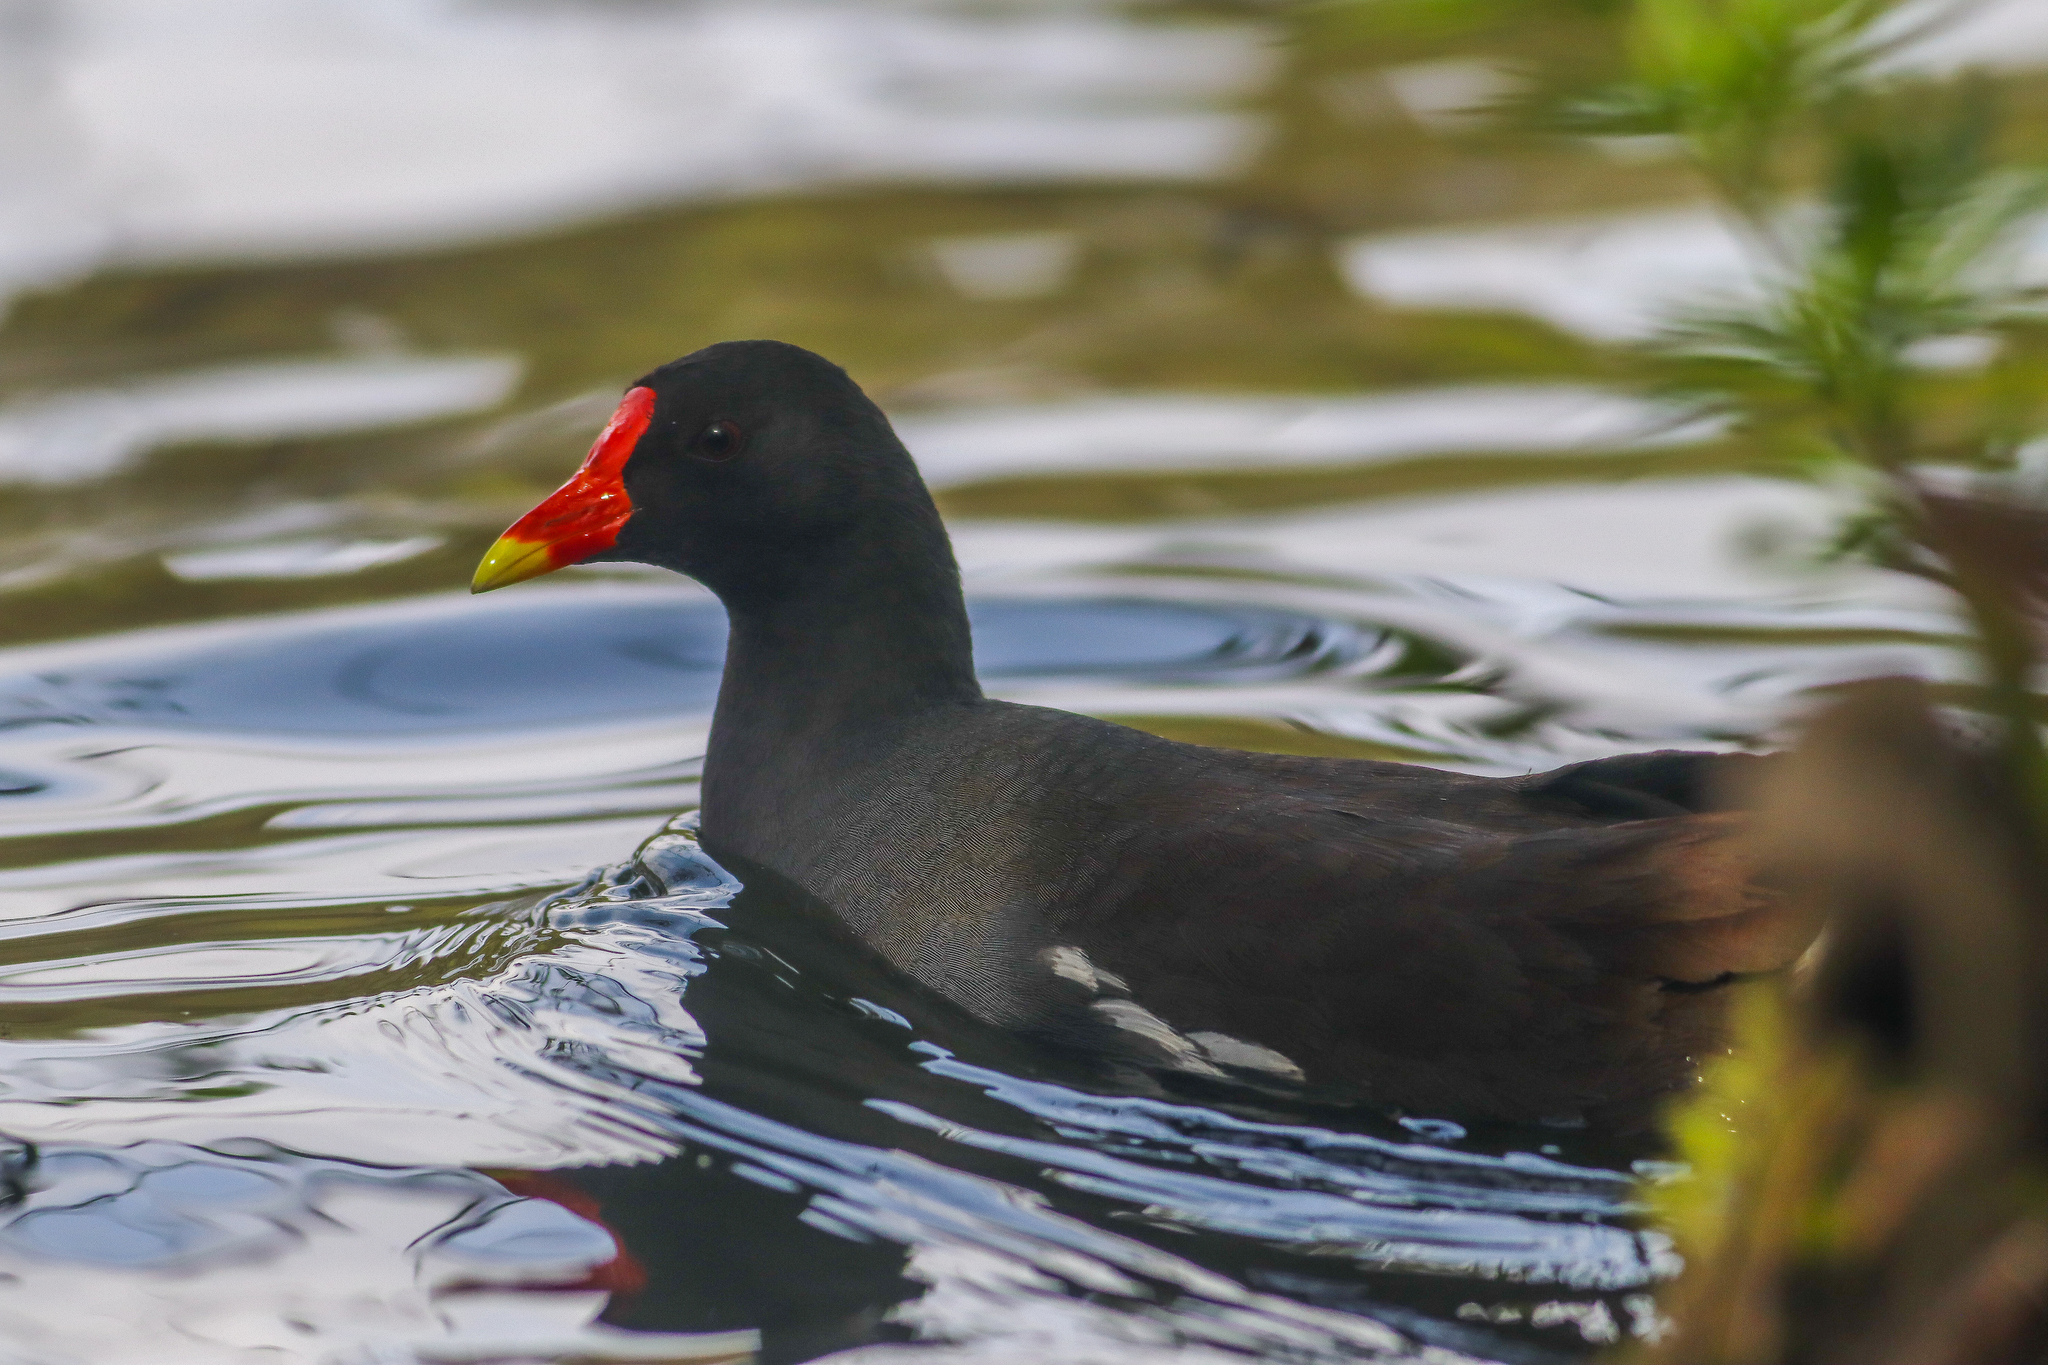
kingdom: Animalia
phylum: Chordata
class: Aves
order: Gruiformes
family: Rallidae
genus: Gallinula
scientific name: Gallinula chloropus
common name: Common moorhen
